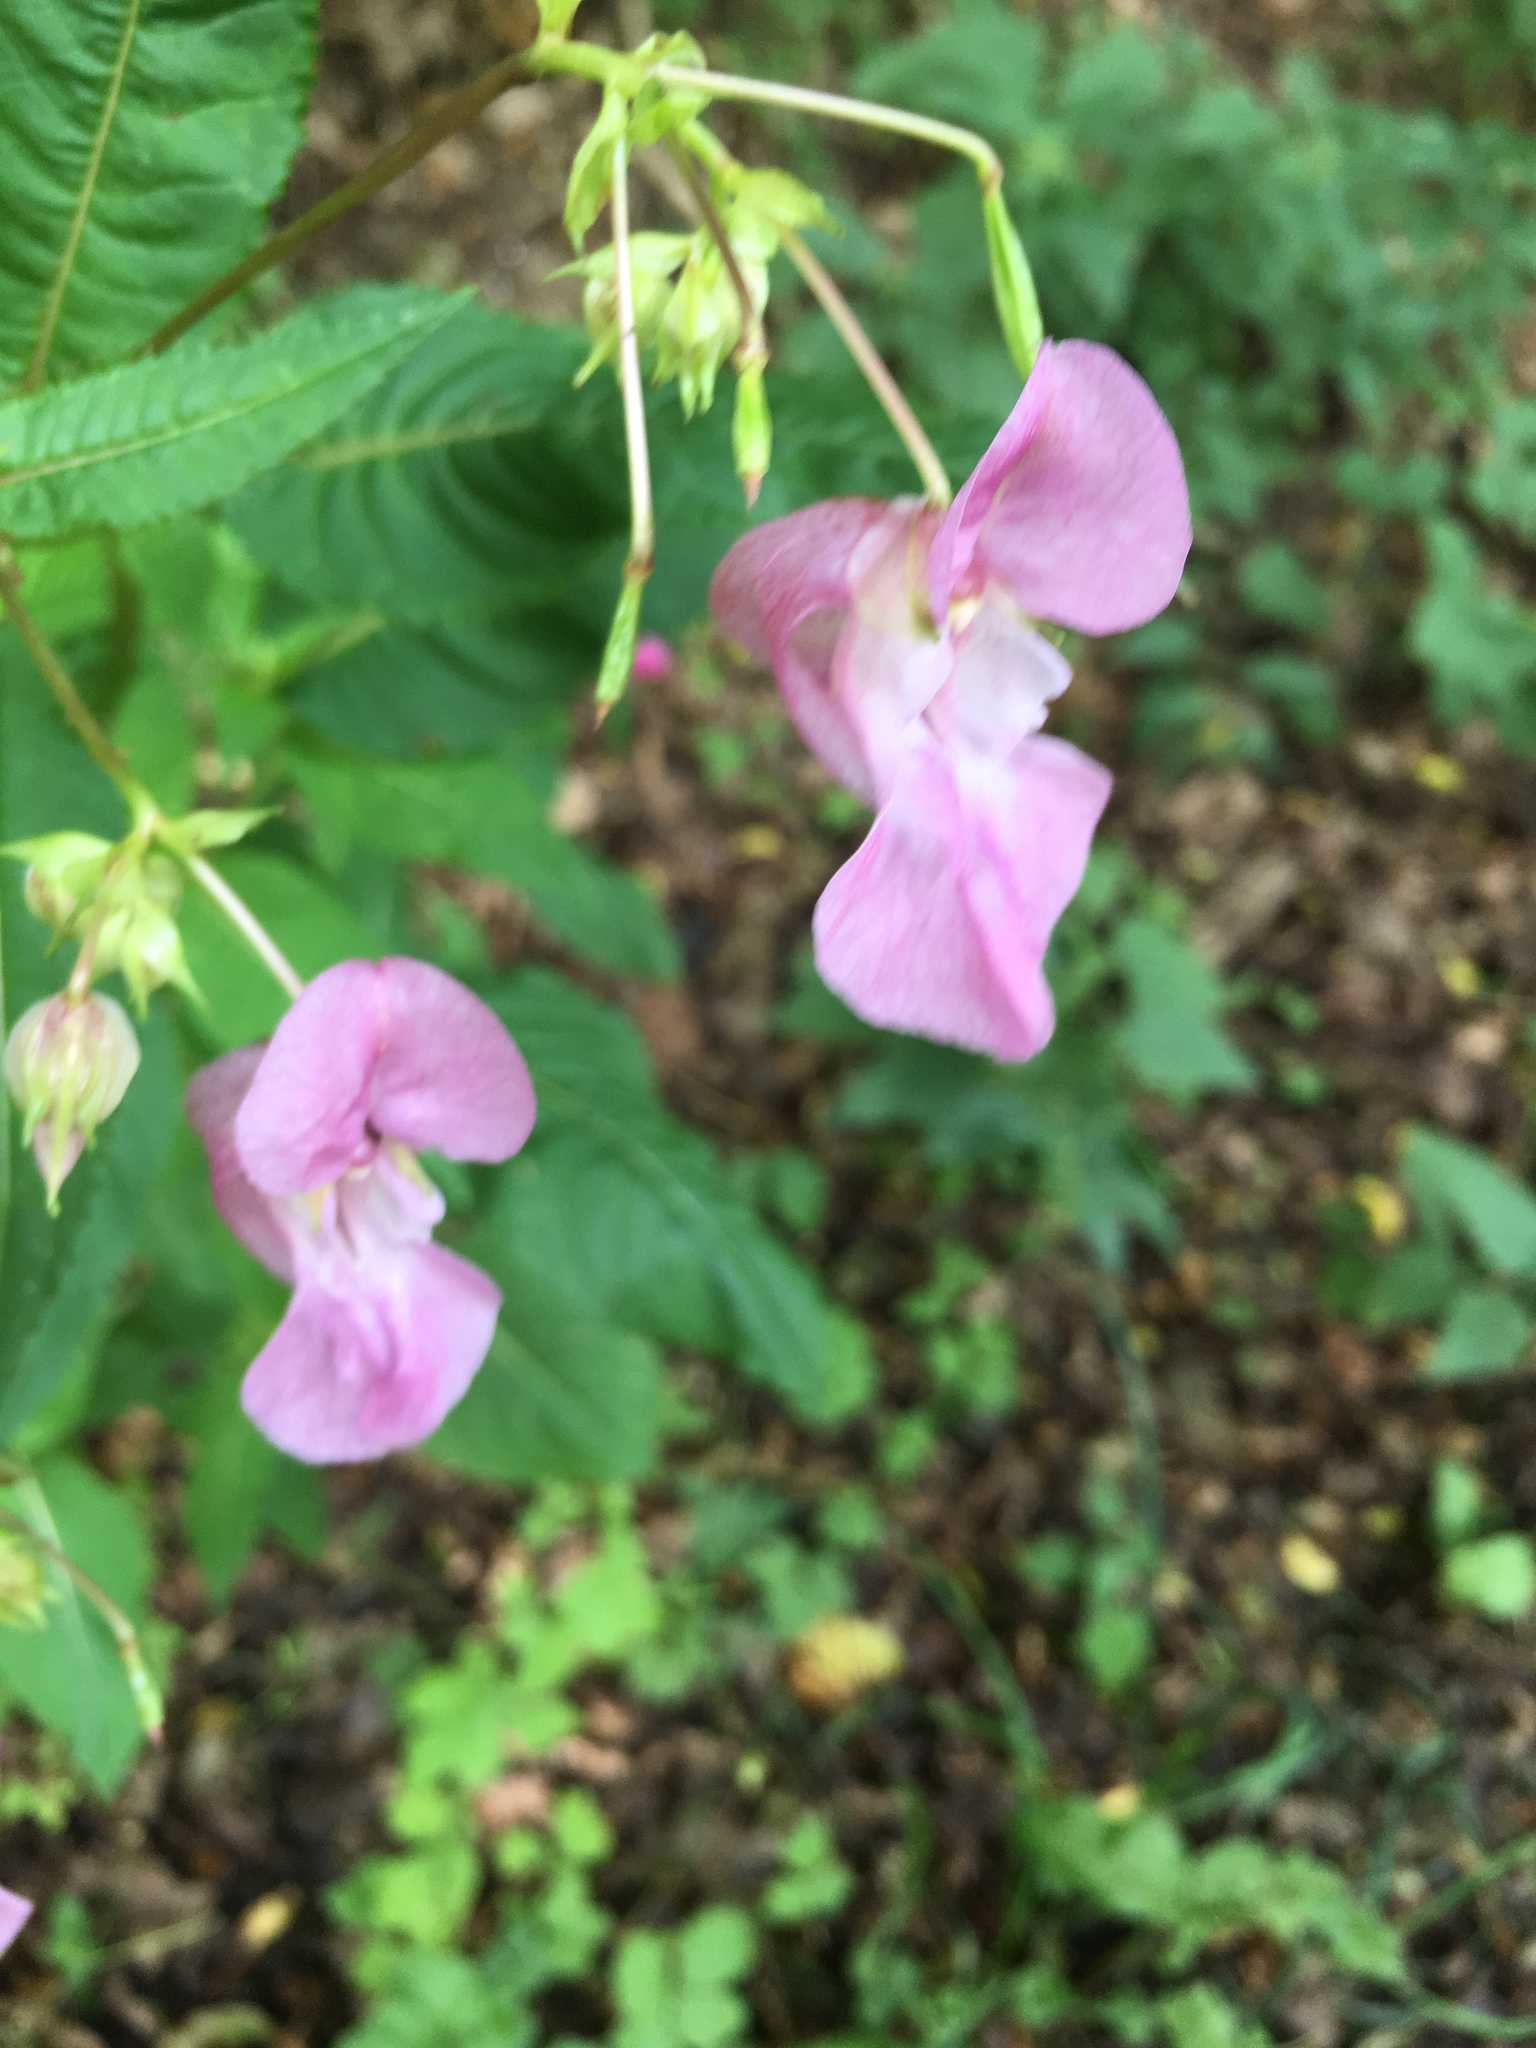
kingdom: Plantae
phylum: Tracheophyta
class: Magnoliopsida
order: Ericales
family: Balsaminaceae
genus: Impatiens
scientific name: Impatiens glandulifera
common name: Himalayan balsam
